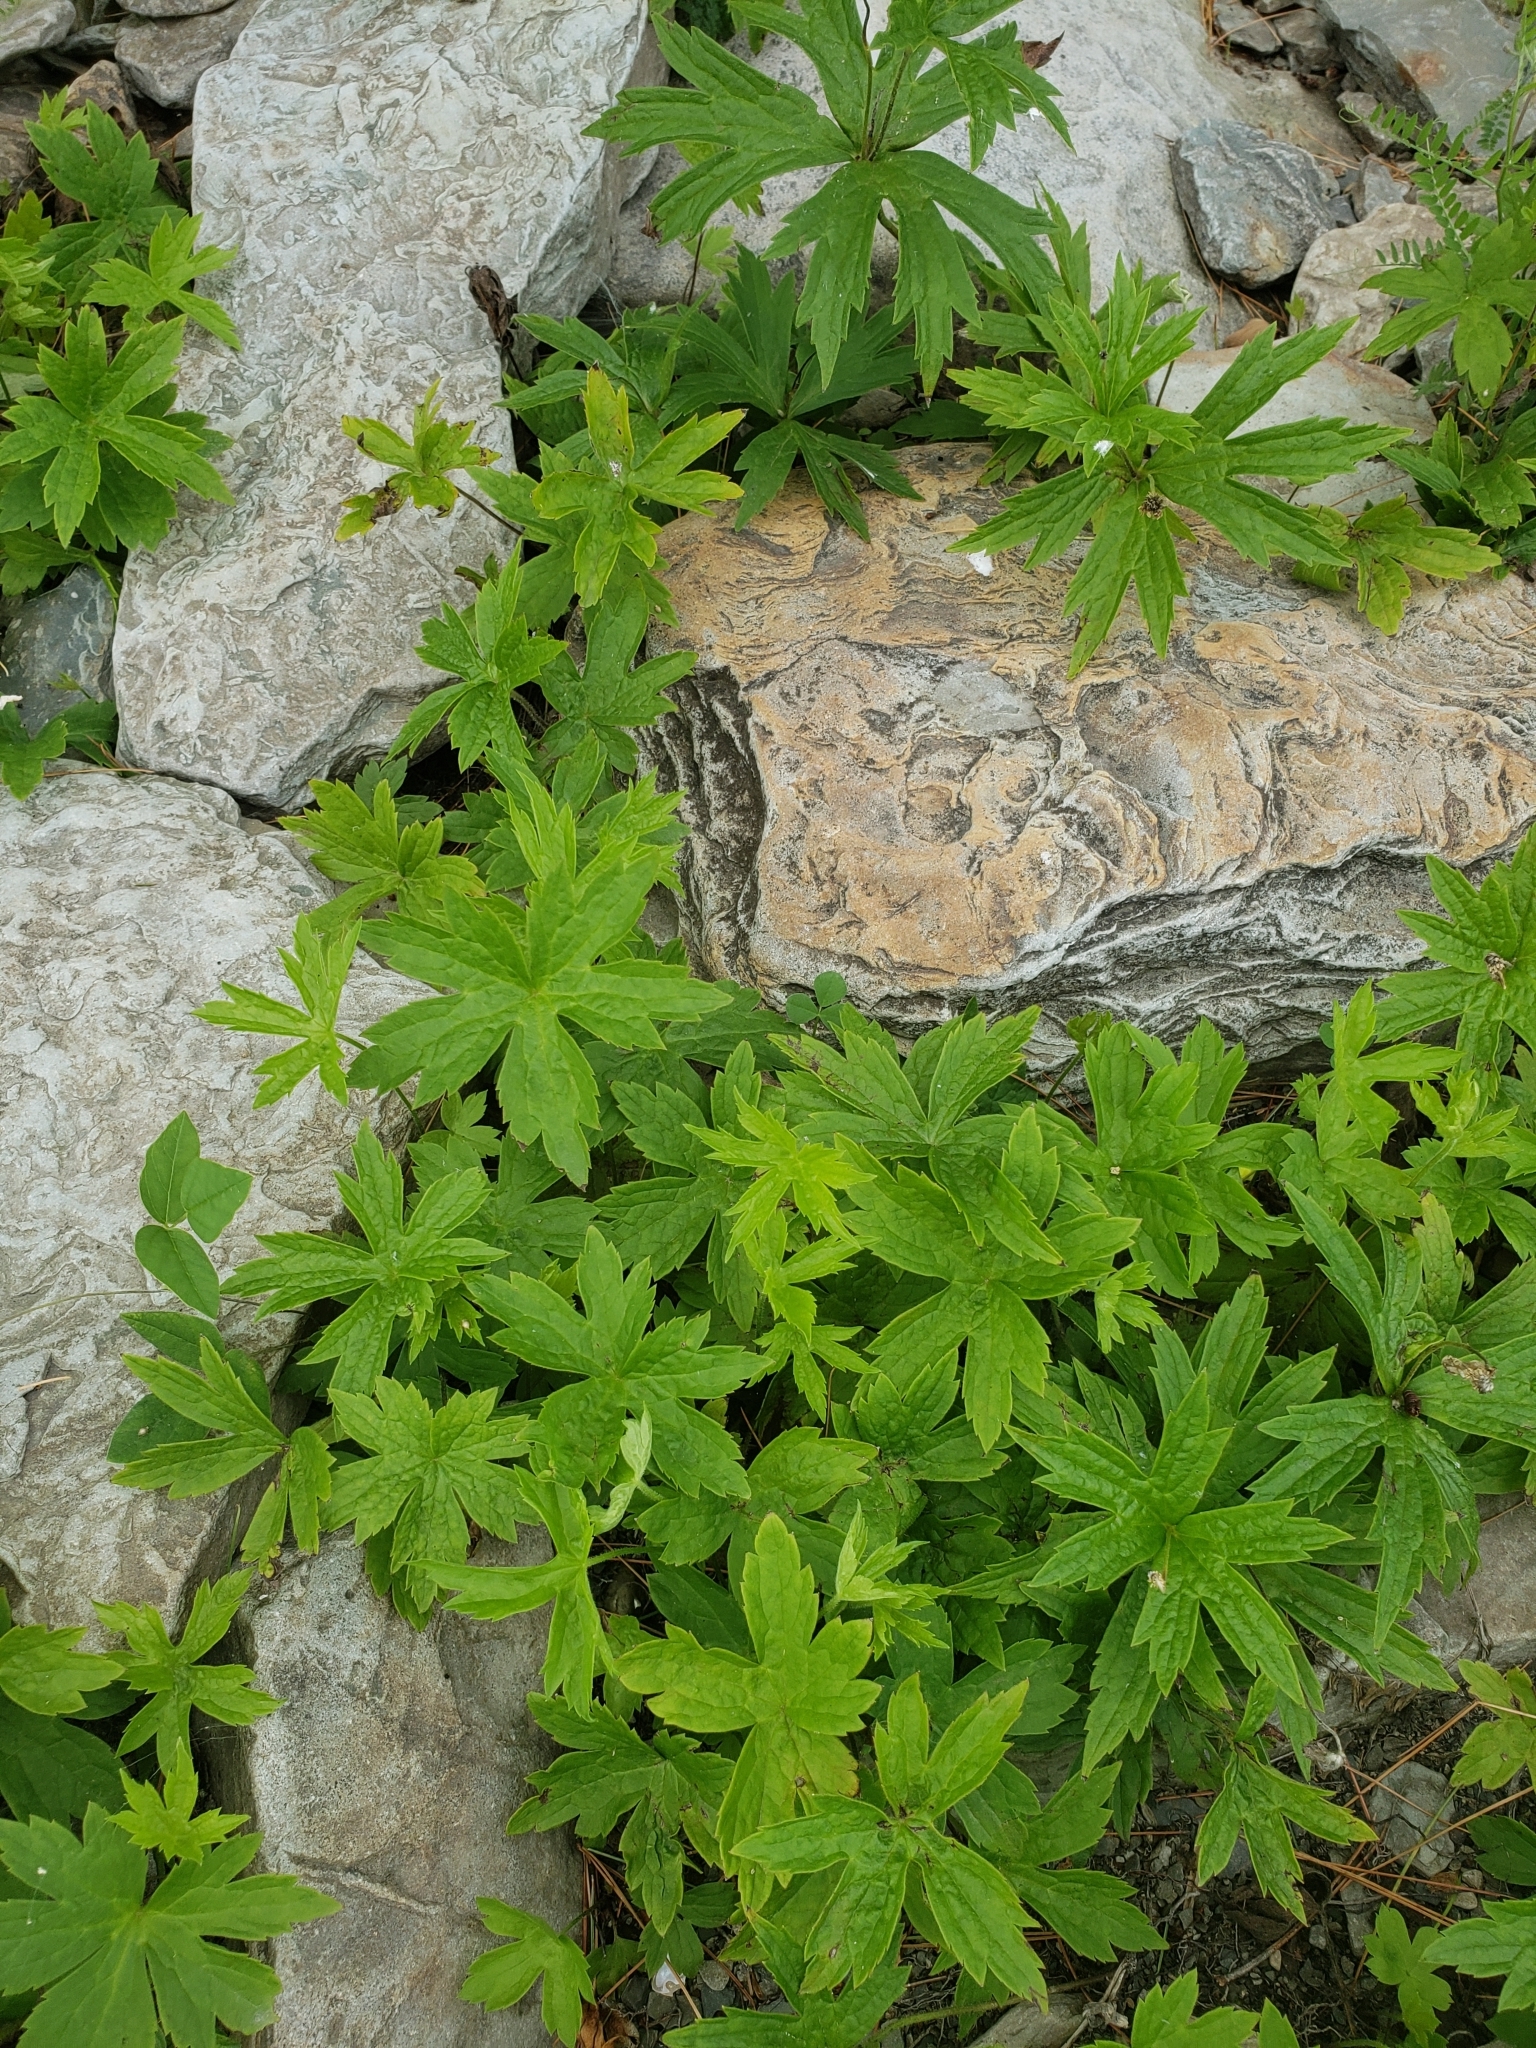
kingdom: Plantae
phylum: Tracheophyta
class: Magnoliopsida
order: Ranunculales
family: Ranunculaceae
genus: Anemonastrum
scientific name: Anemonastrum canadense
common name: Canada anemone
